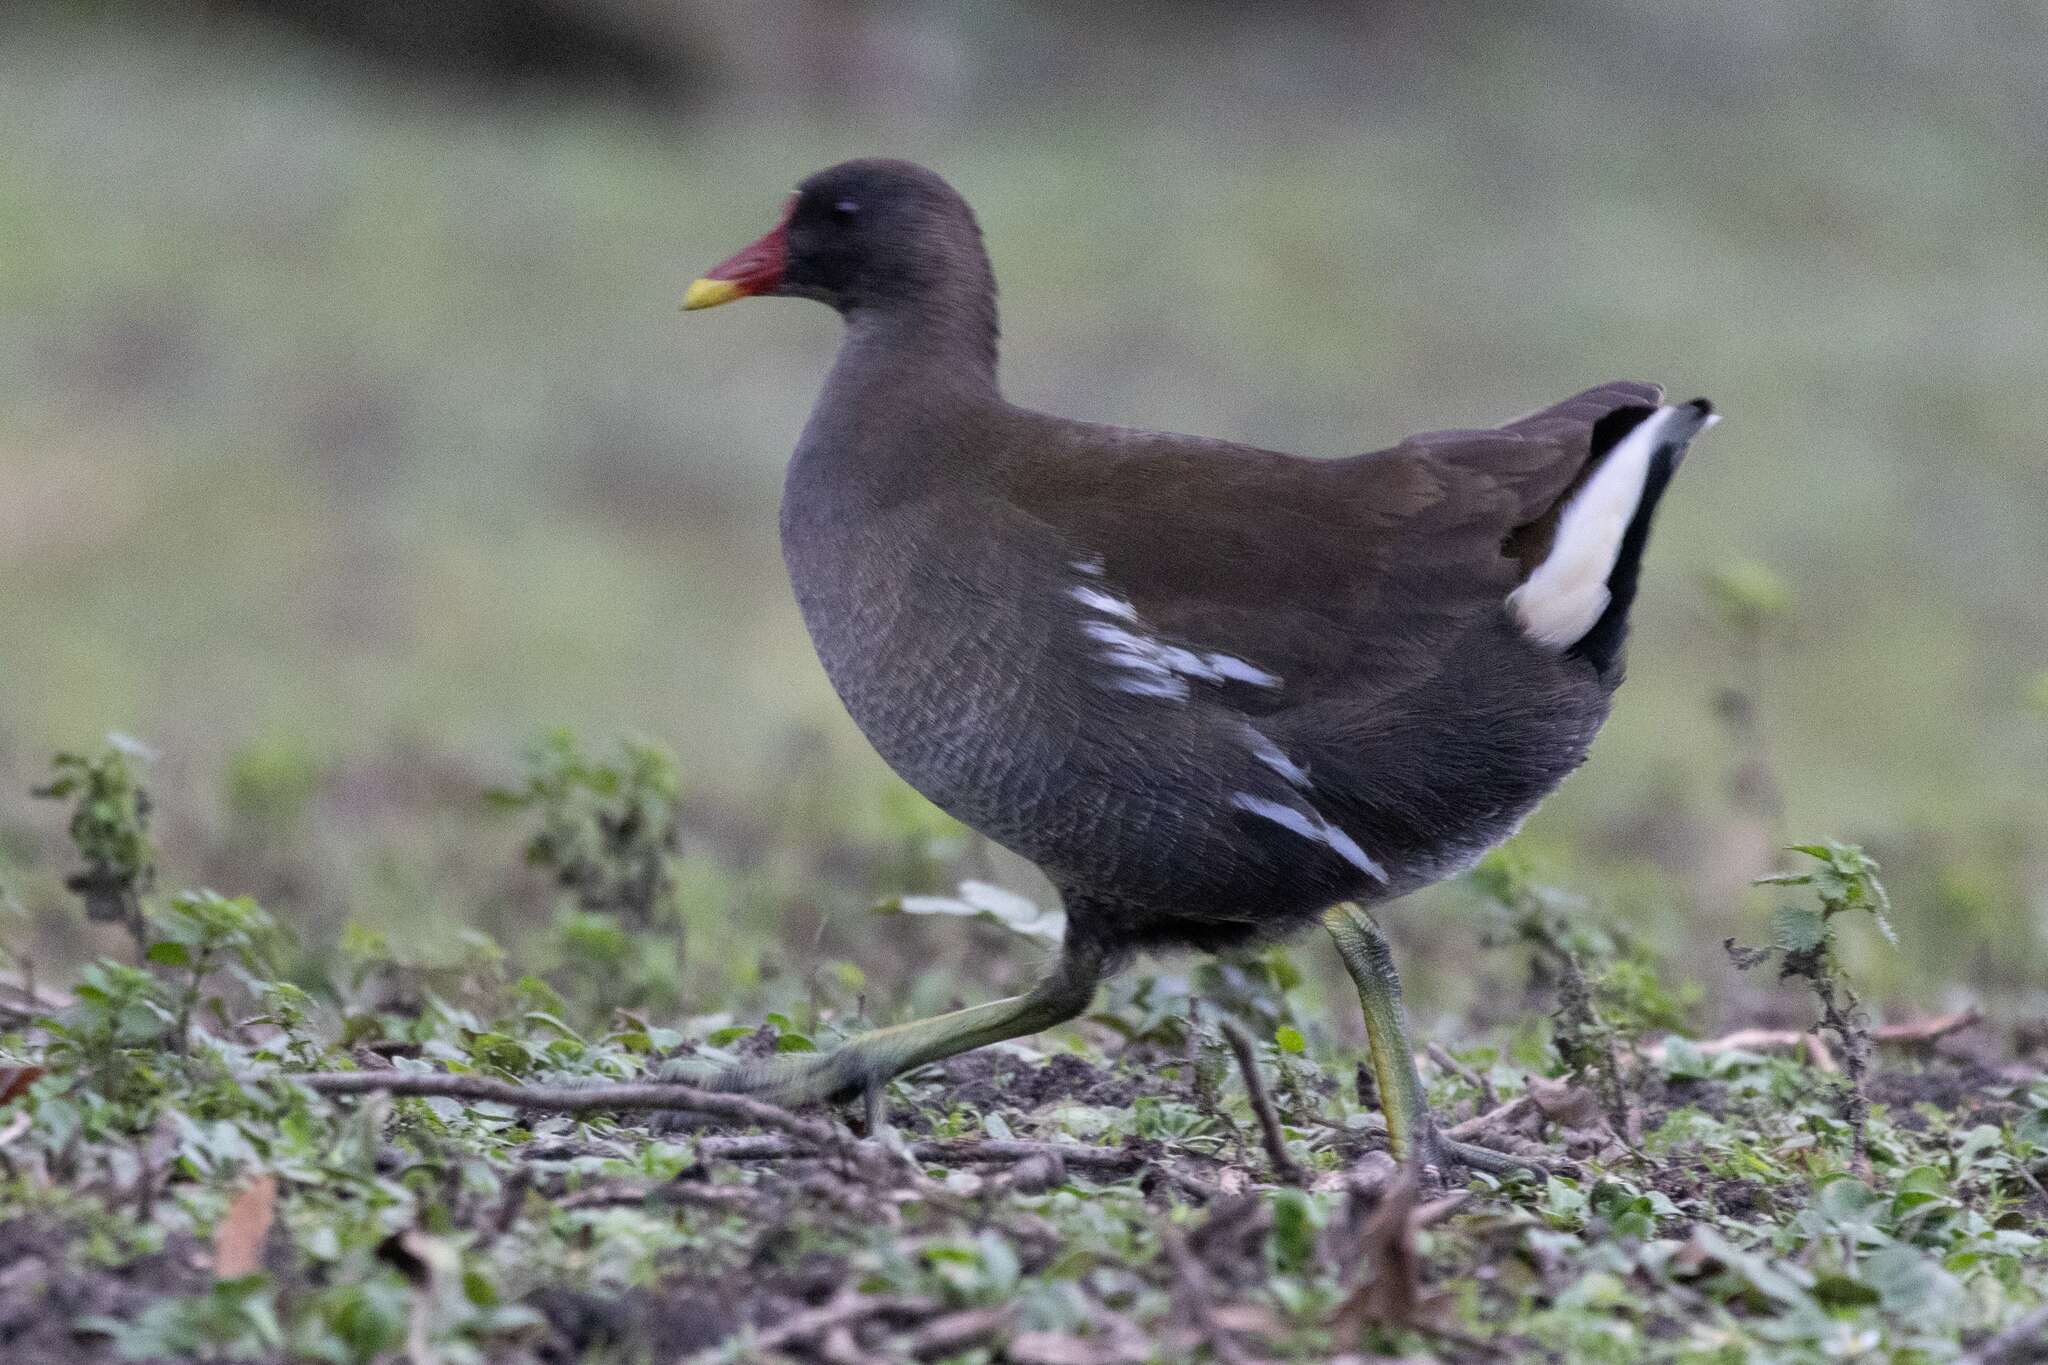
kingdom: Animalia
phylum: Chordata
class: Aves
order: Gruiformes
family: Rallidae
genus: Gallinula
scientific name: Gallinula chloropus
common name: Common moorhen
